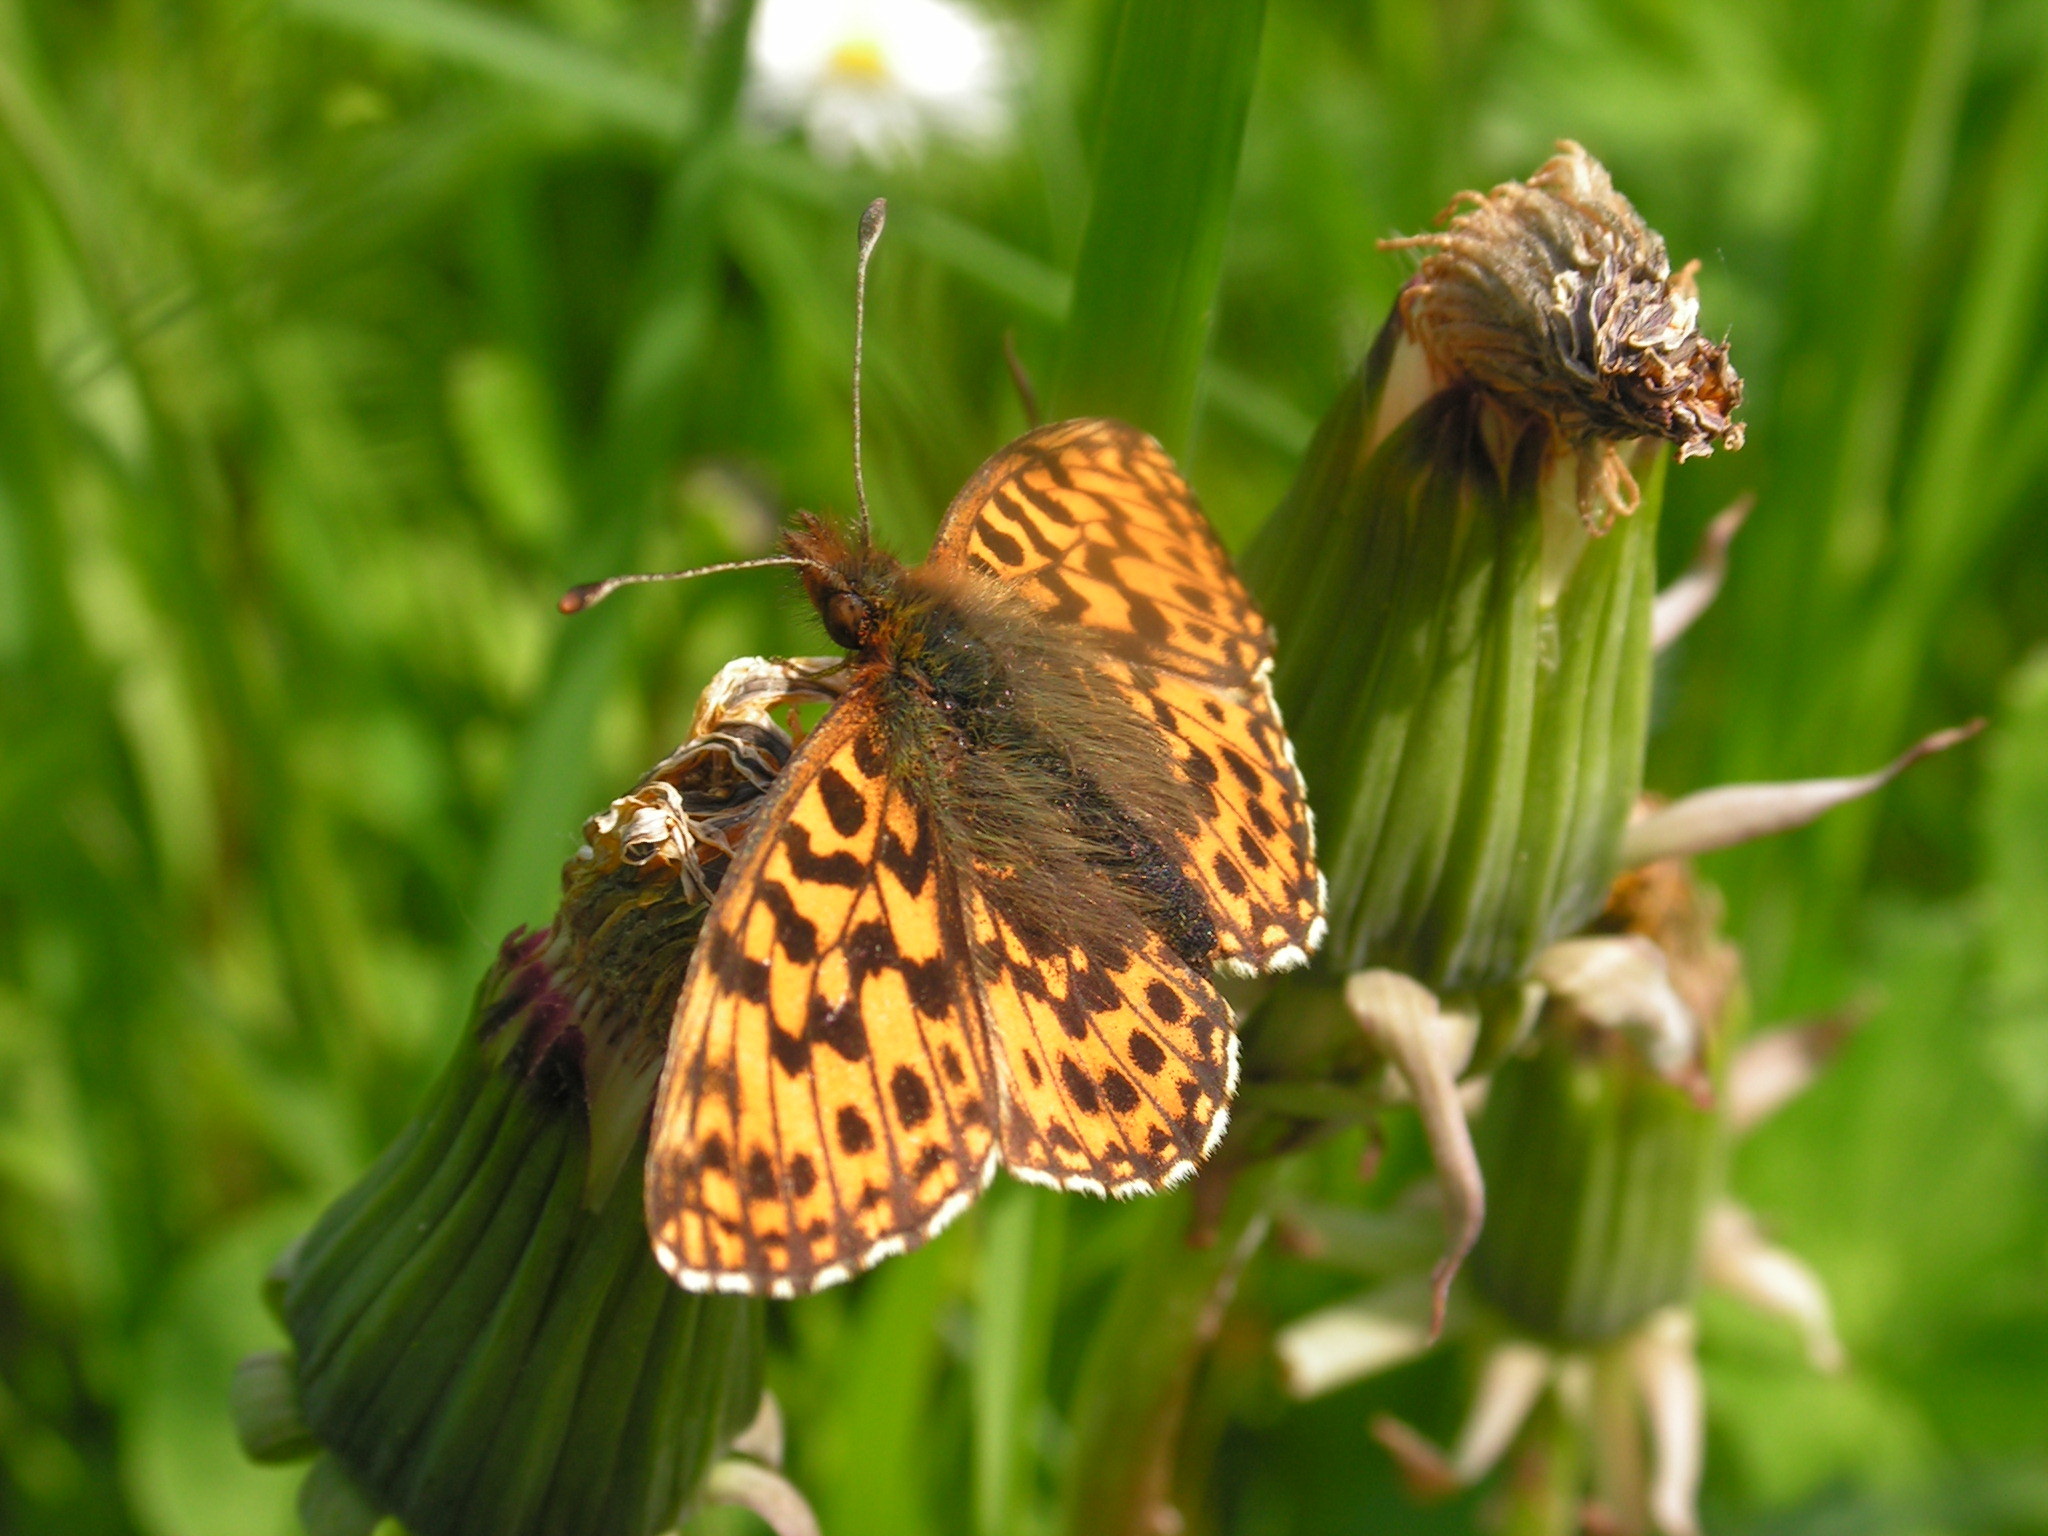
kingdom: Animalia
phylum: Arthropoda
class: Insecta
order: Lepidoptera
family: Nymphalidae
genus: Boloria
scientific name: Boloria dia
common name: Weaver's fritillary
